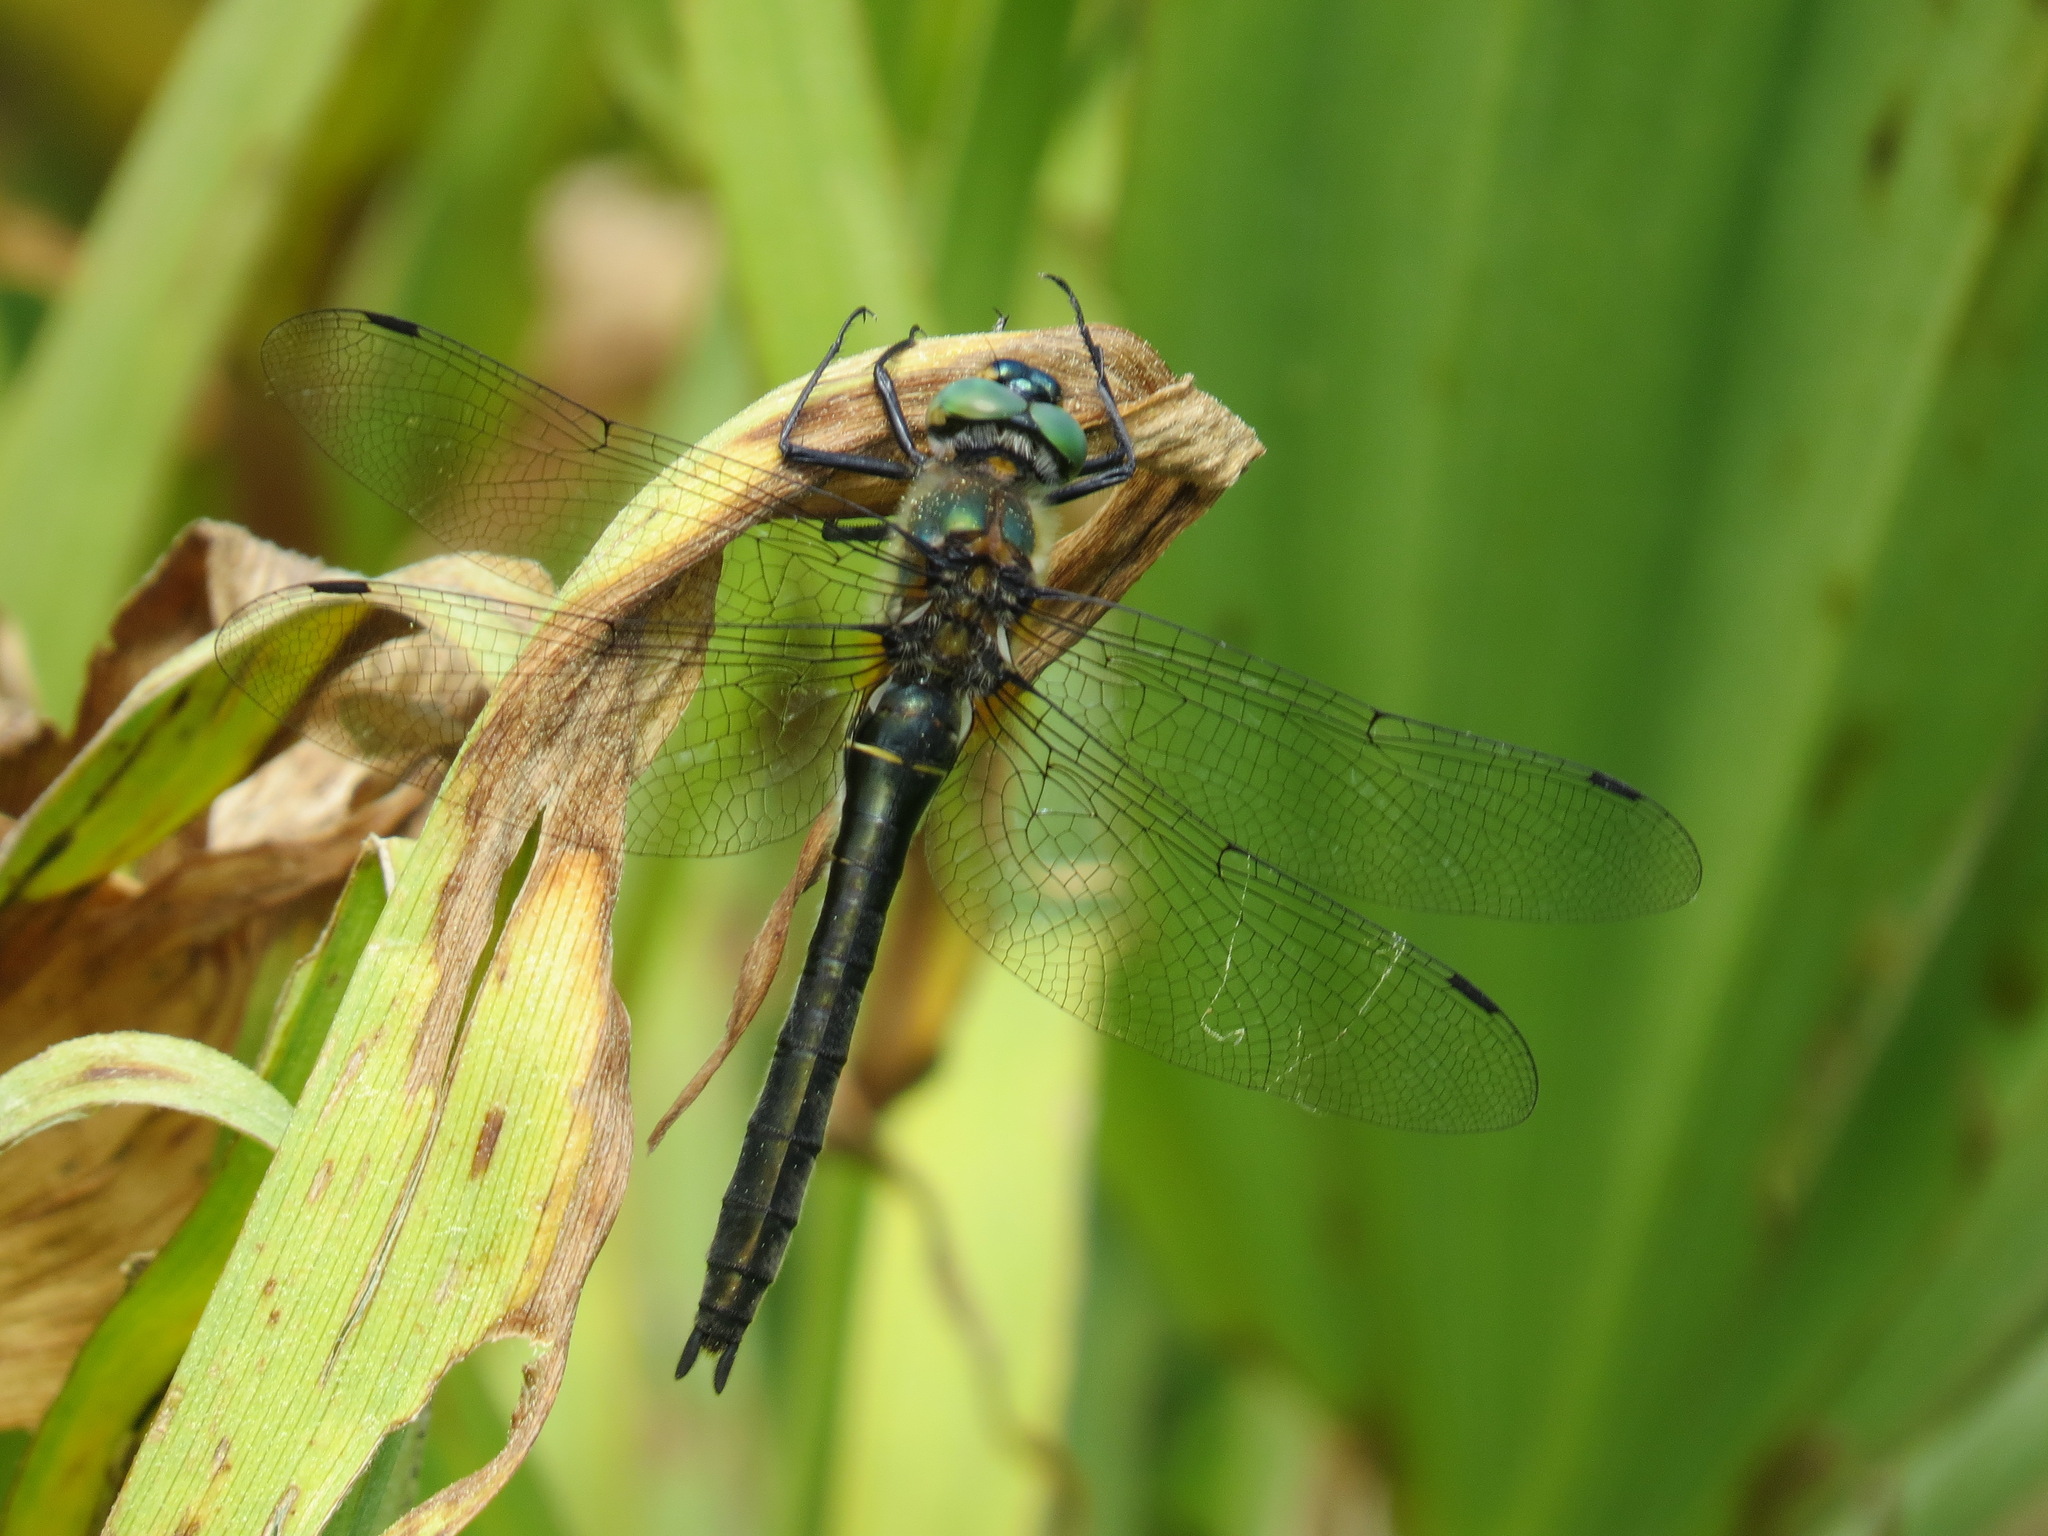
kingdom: Animalia
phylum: Arthropoda
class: Insecta
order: Odonata
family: Corduliidae
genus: Cordulia
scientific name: Cordulia shurtleffii
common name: American emerald
